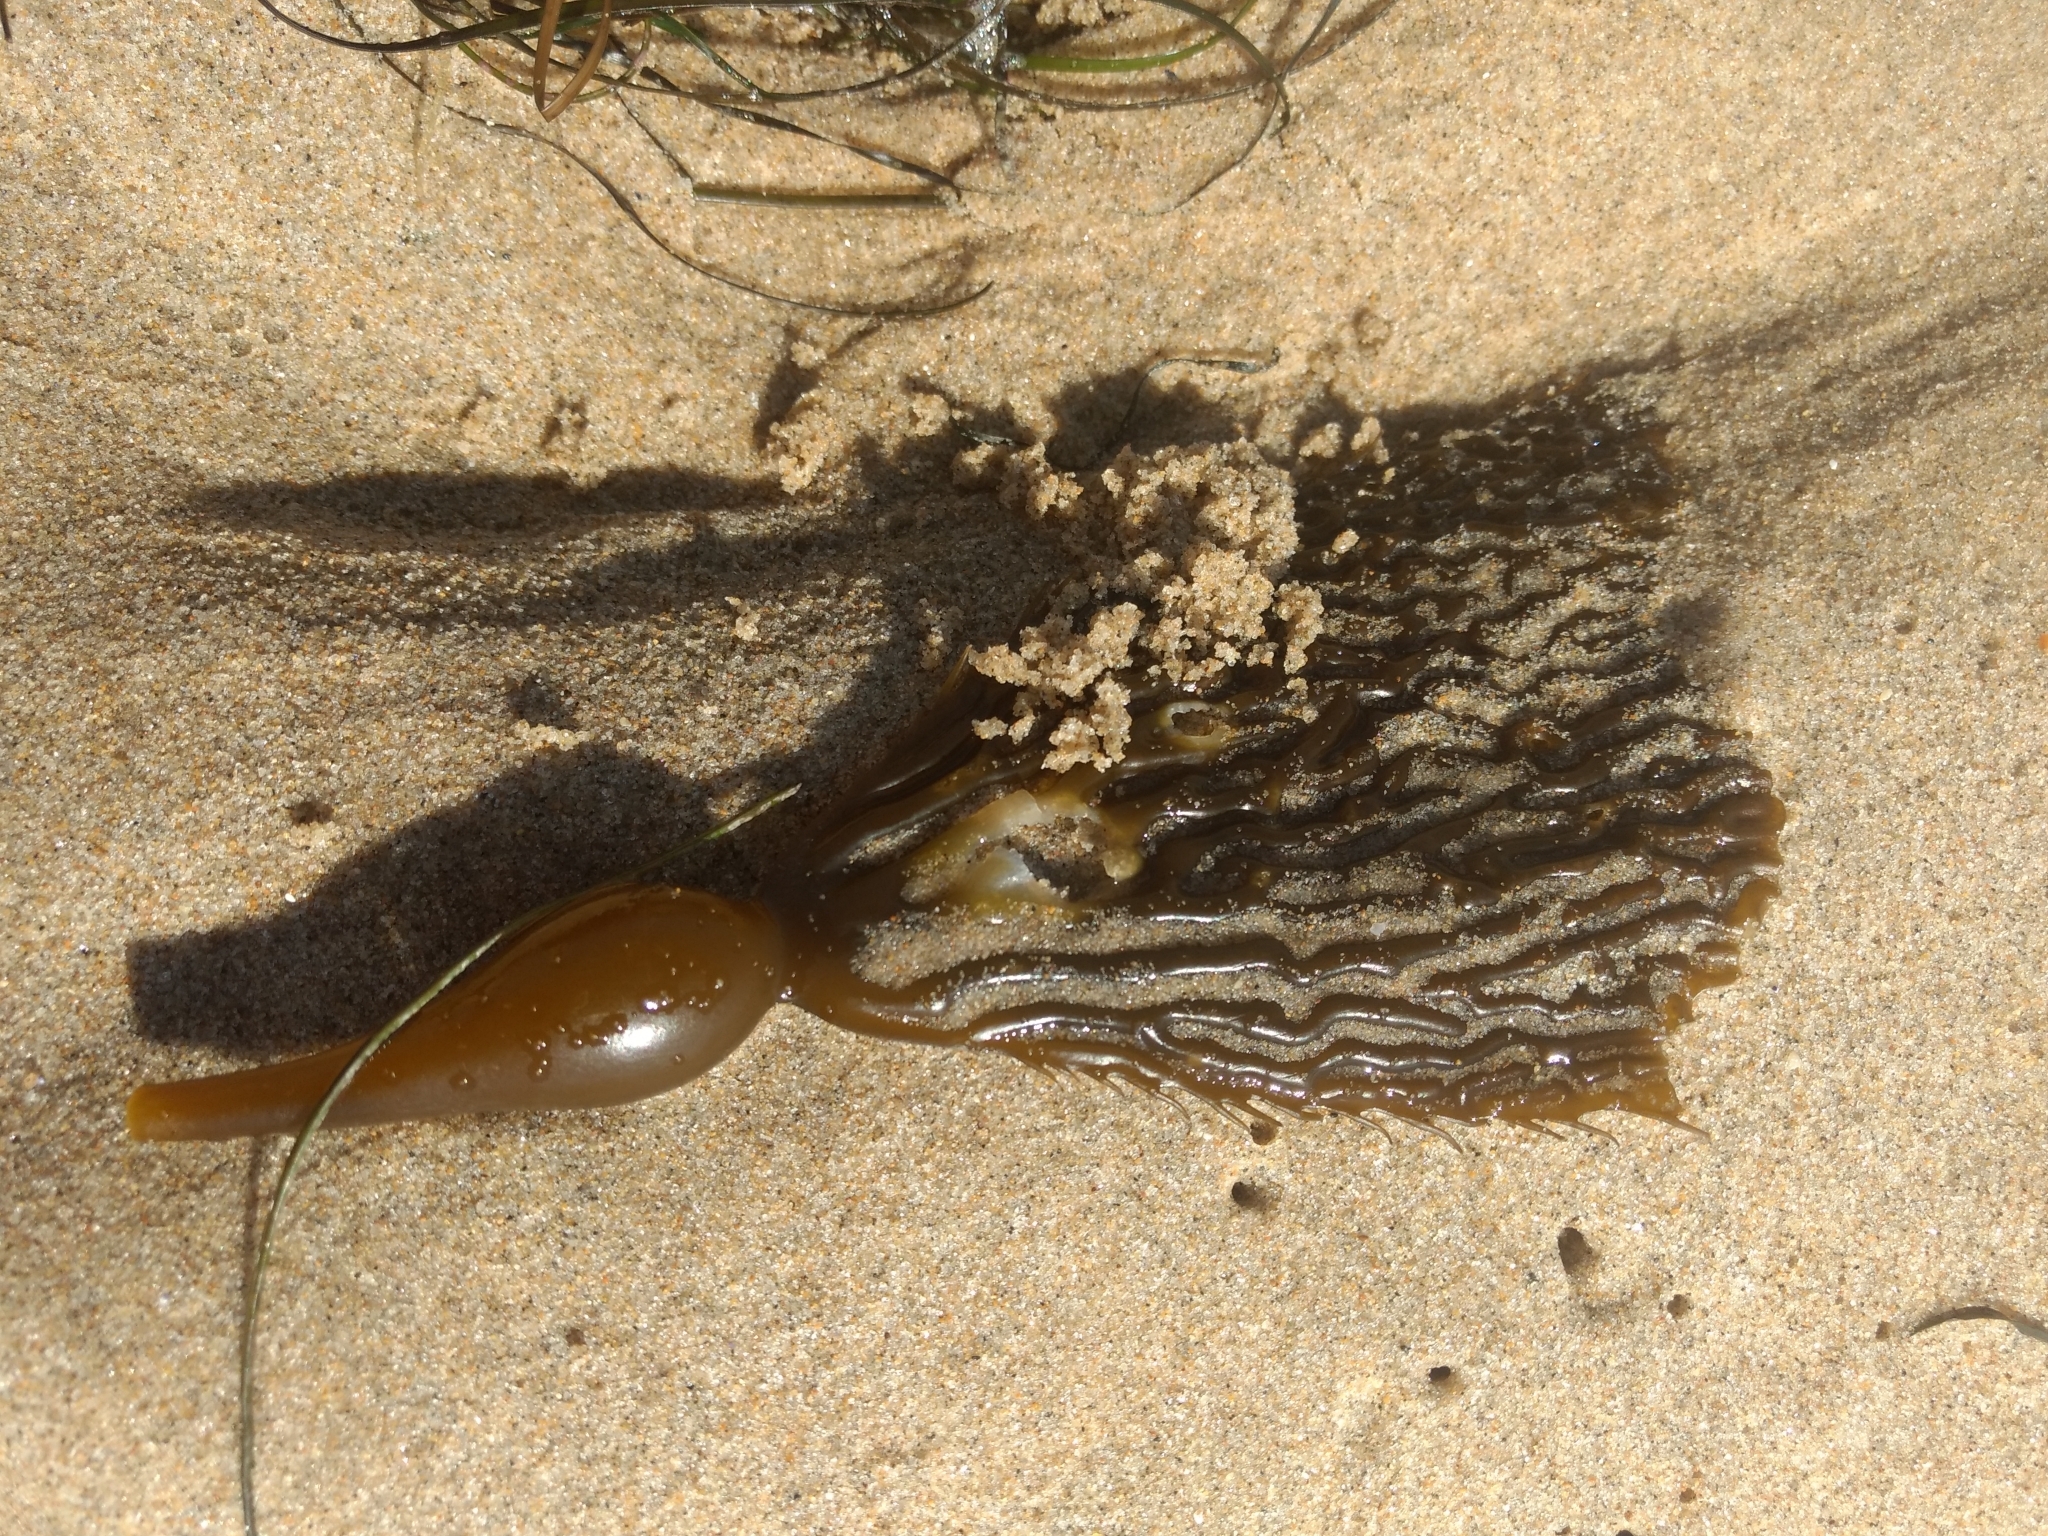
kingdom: Chromista
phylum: Ochrophyta
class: Phaeophyceae
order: Laminariales
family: Laminariaceae
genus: Macrocystis
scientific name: Macrocystis pyrifera
